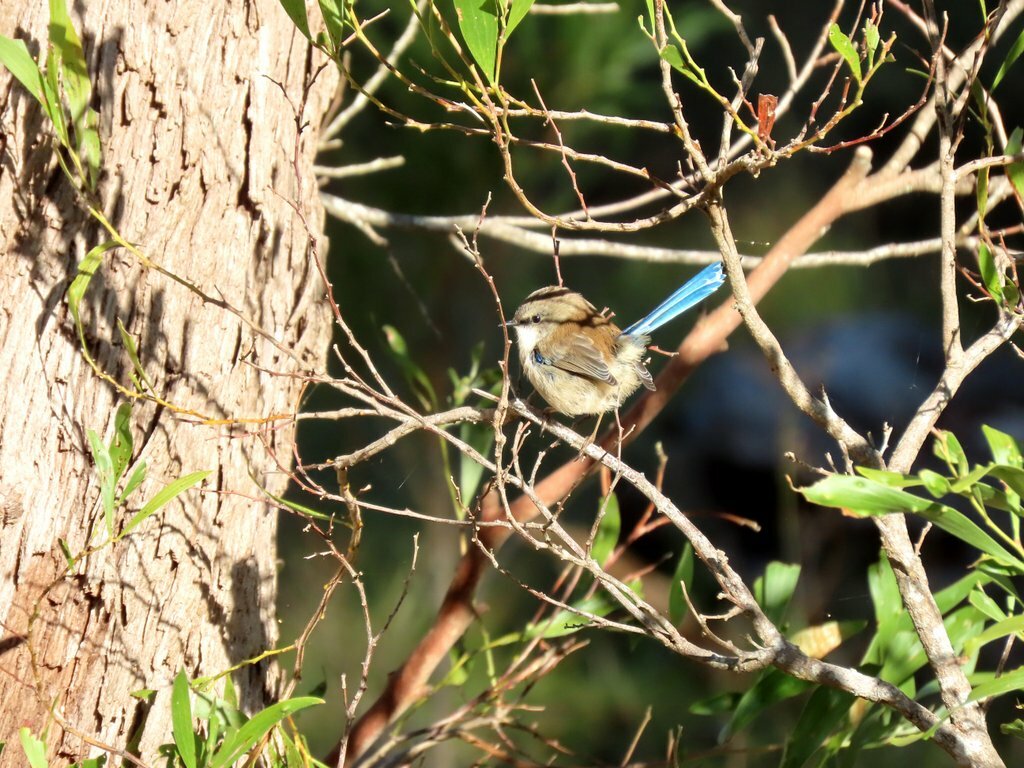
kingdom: Animalia
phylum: Chordata
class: Aves
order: Passeriformes
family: Maluridae
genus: Malurus
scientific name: Malurus cyaneus
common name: Superb fairywren
